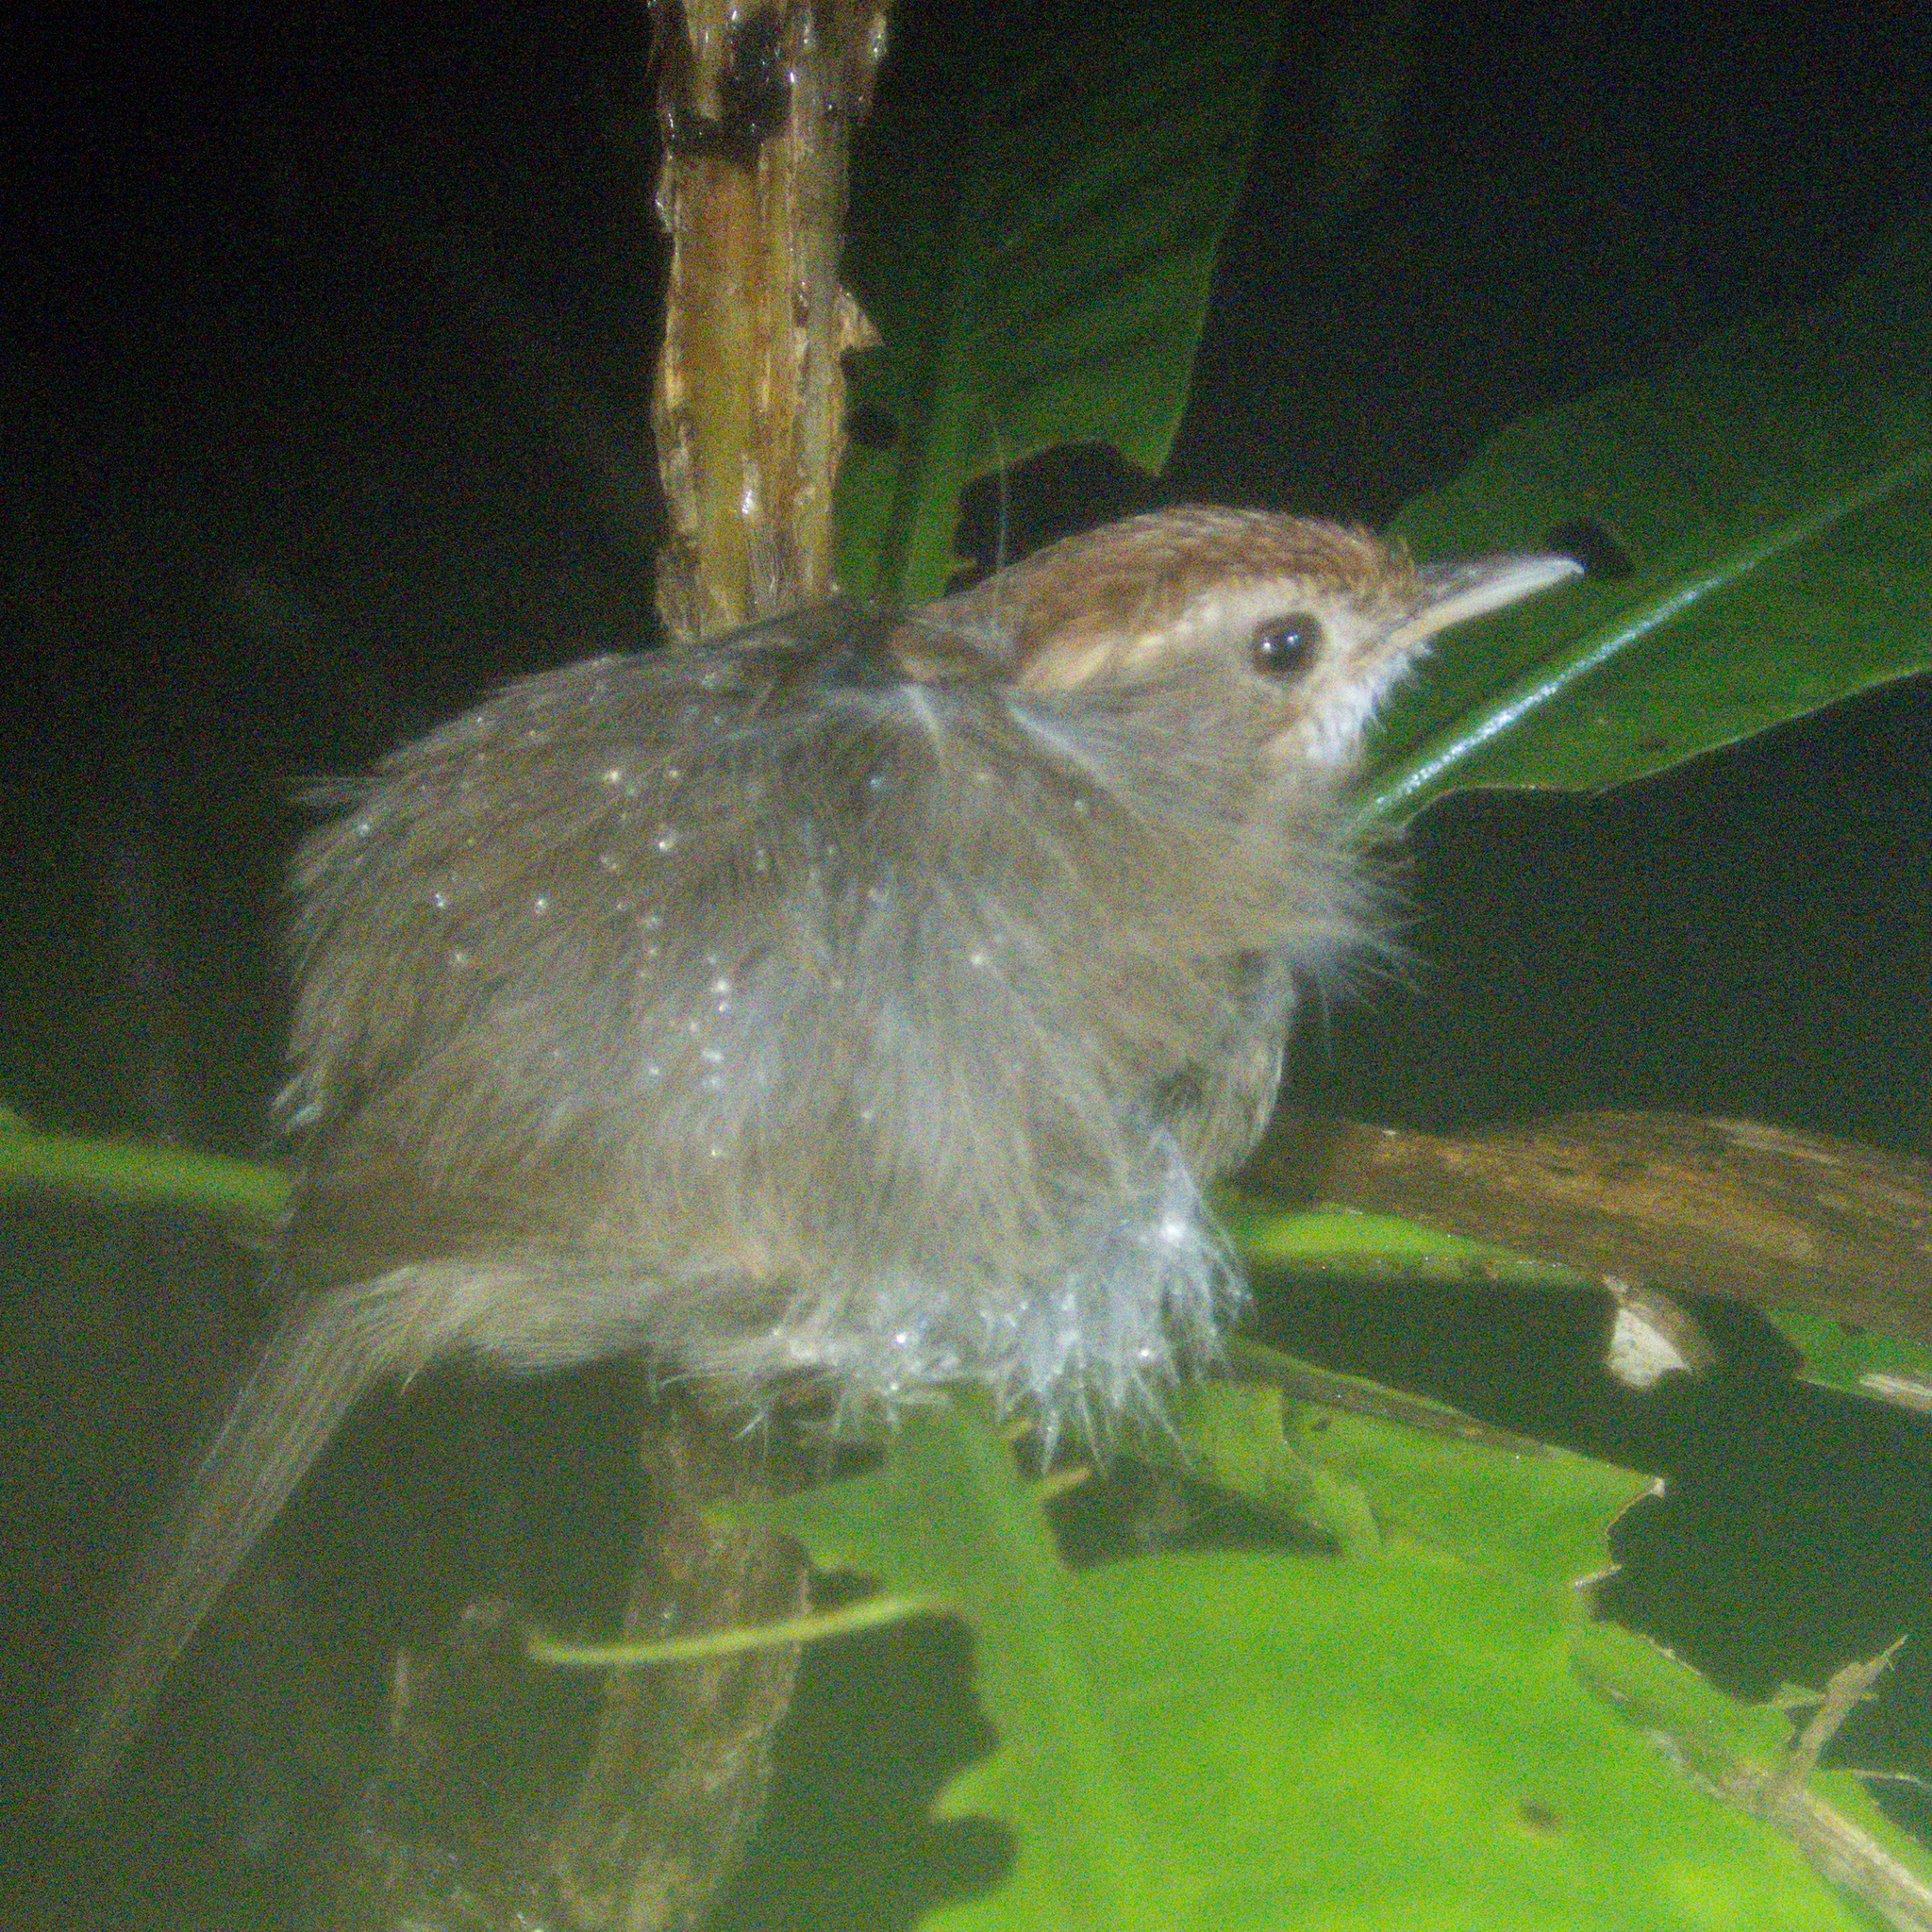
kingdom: Animalia
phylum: Chordata
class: Aves
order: Passeriformes
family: Pellorneidae
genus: Pellorneum
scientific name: Pellorneum ruficeps
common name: Puff-throated babbler
